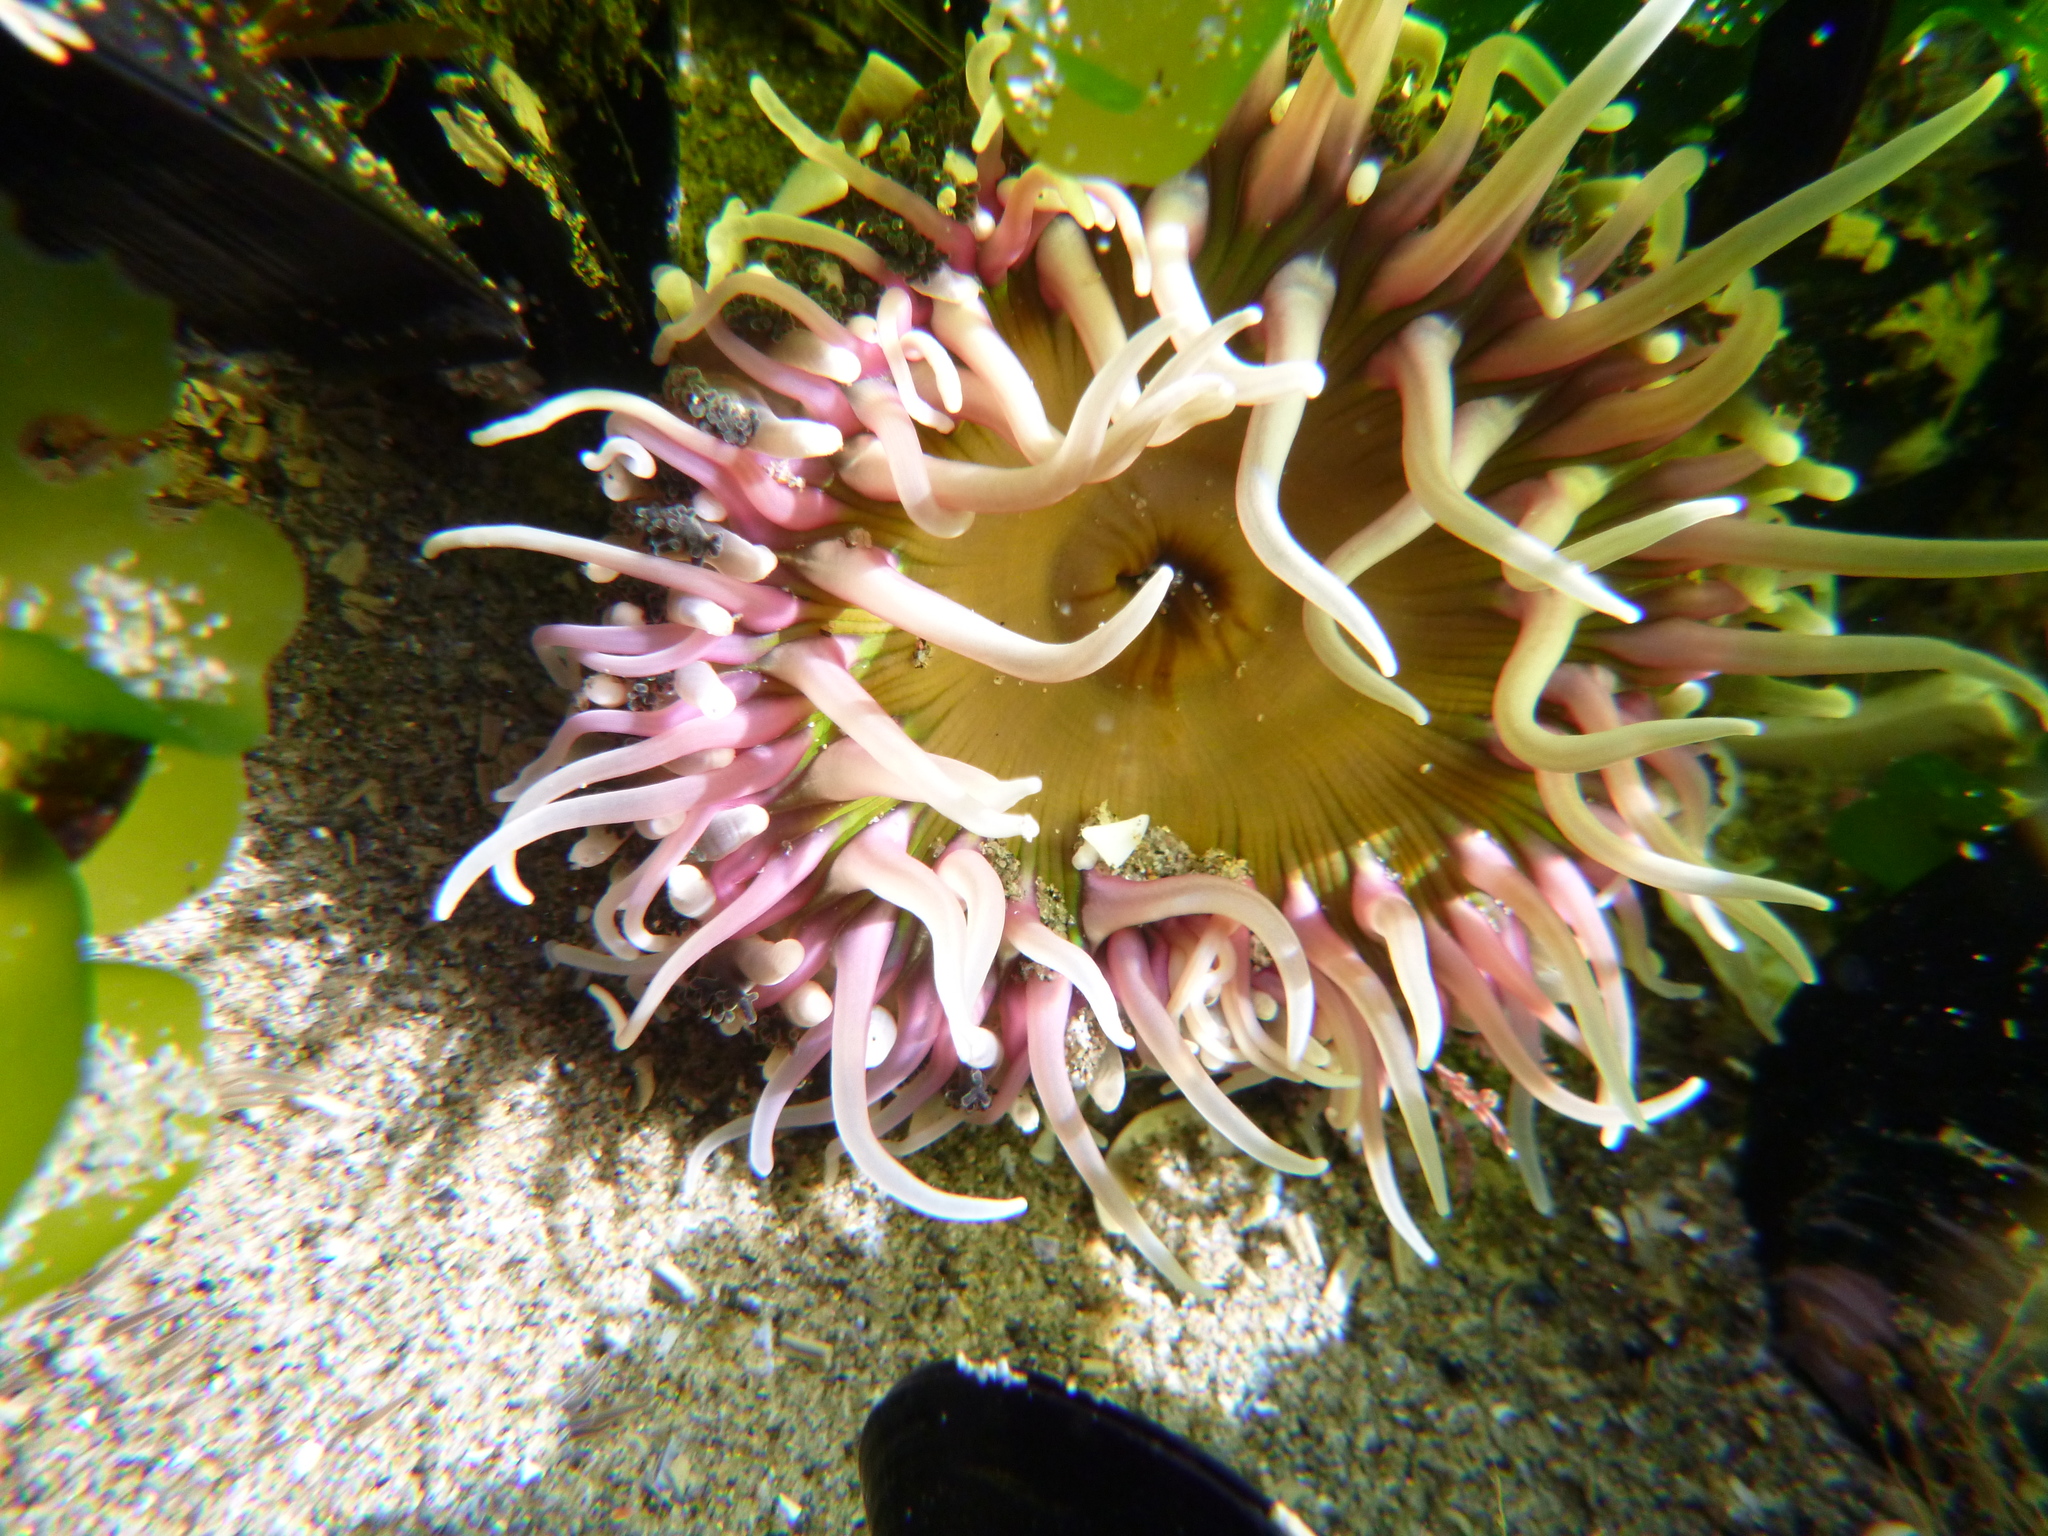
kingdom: Animalia
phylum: Cnidaria
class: Anthozoa
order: Actiniaria
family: Actiniidae
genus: Oulactis
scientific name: Oulactis magna
